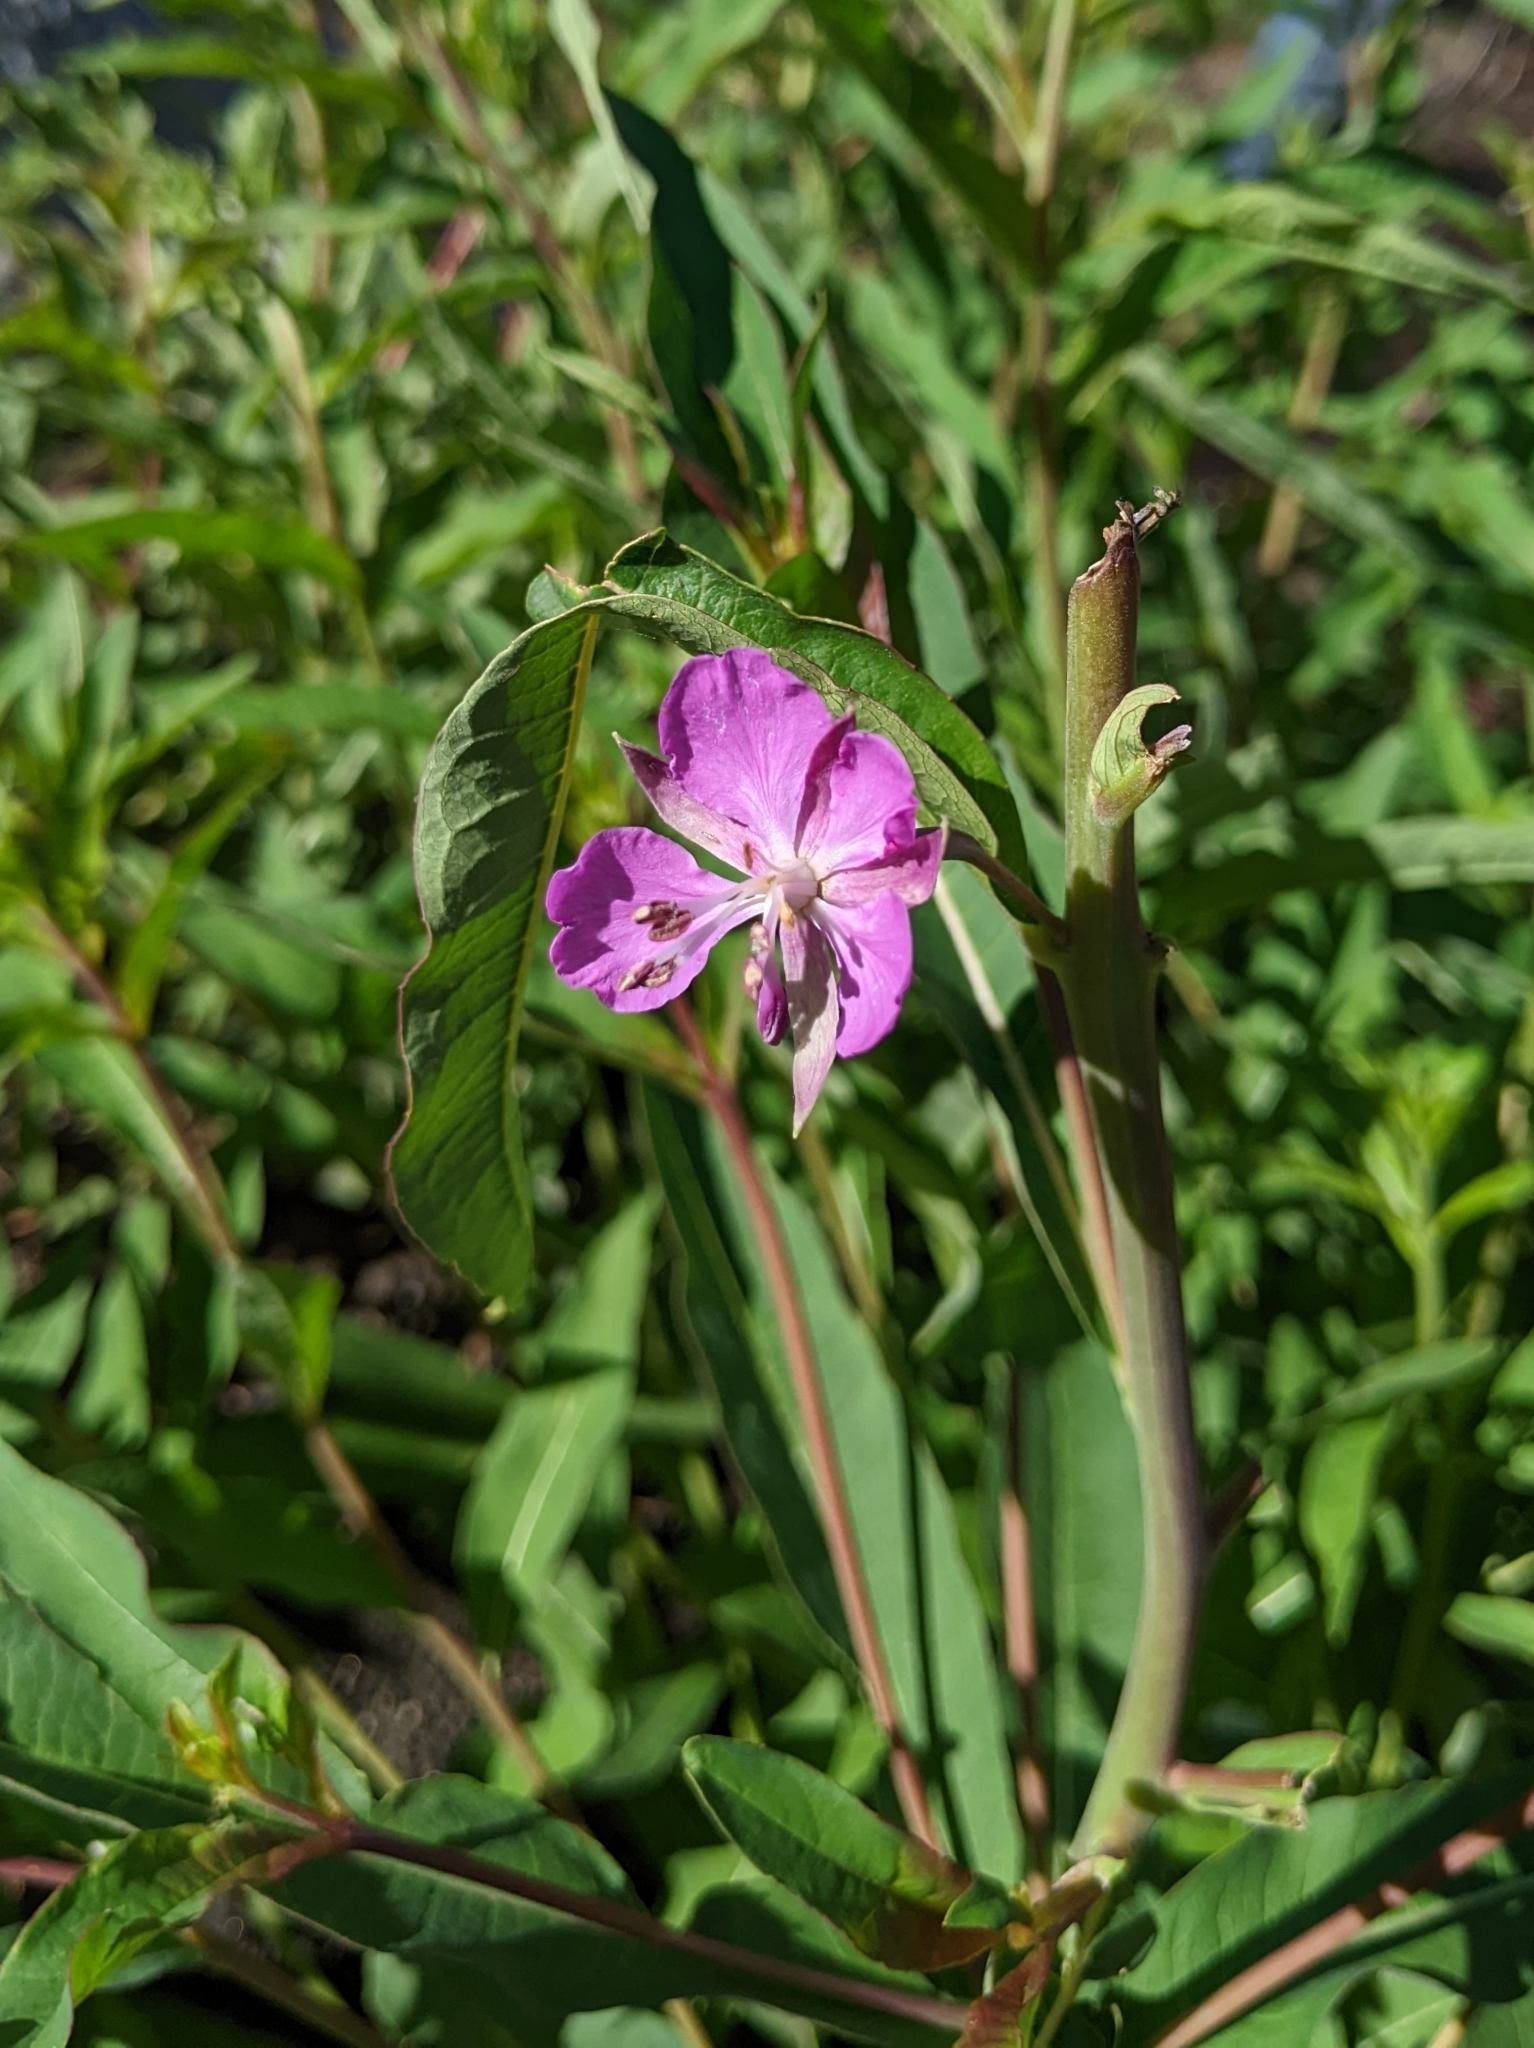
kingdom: Plantae
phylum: Tracheophyta
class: Magnoliopsida
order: Myrtales
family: Onagraceae
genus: Chamaenerion
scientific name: Chamaenerion angustifolium
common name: Fireweed
